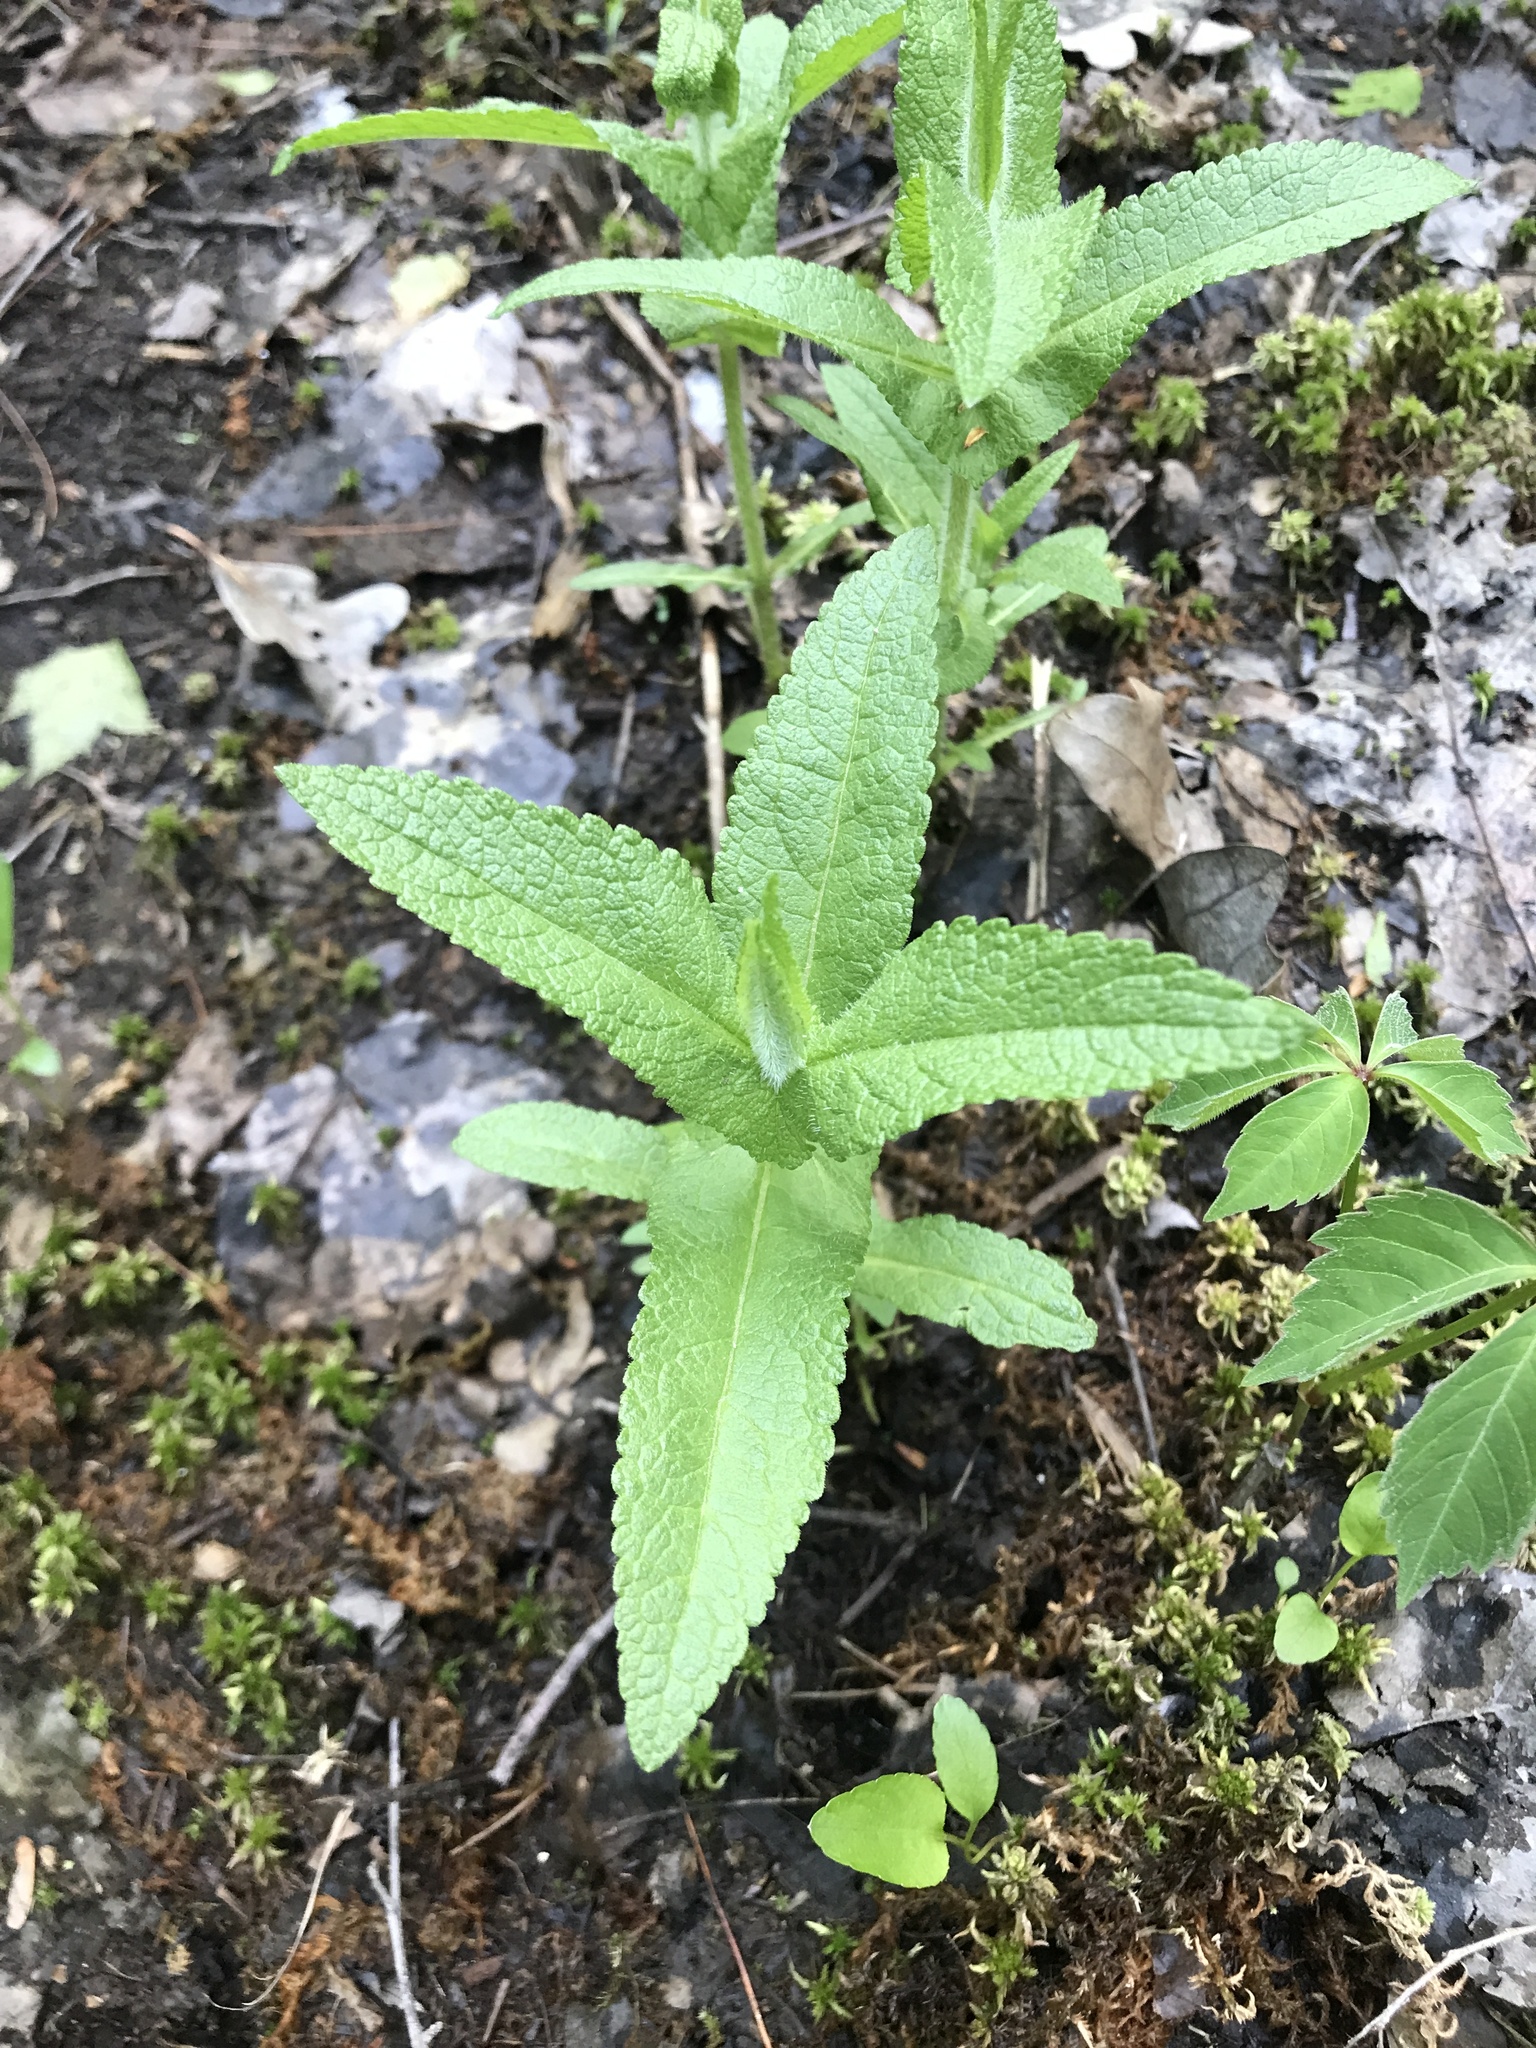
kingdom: Plantae
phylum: Tracheophyta
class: Magnoliopsida
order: Asterales
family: Asteraceae
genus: Eupatorium
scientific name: Eupatorium perfoliatum
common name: Boneset
